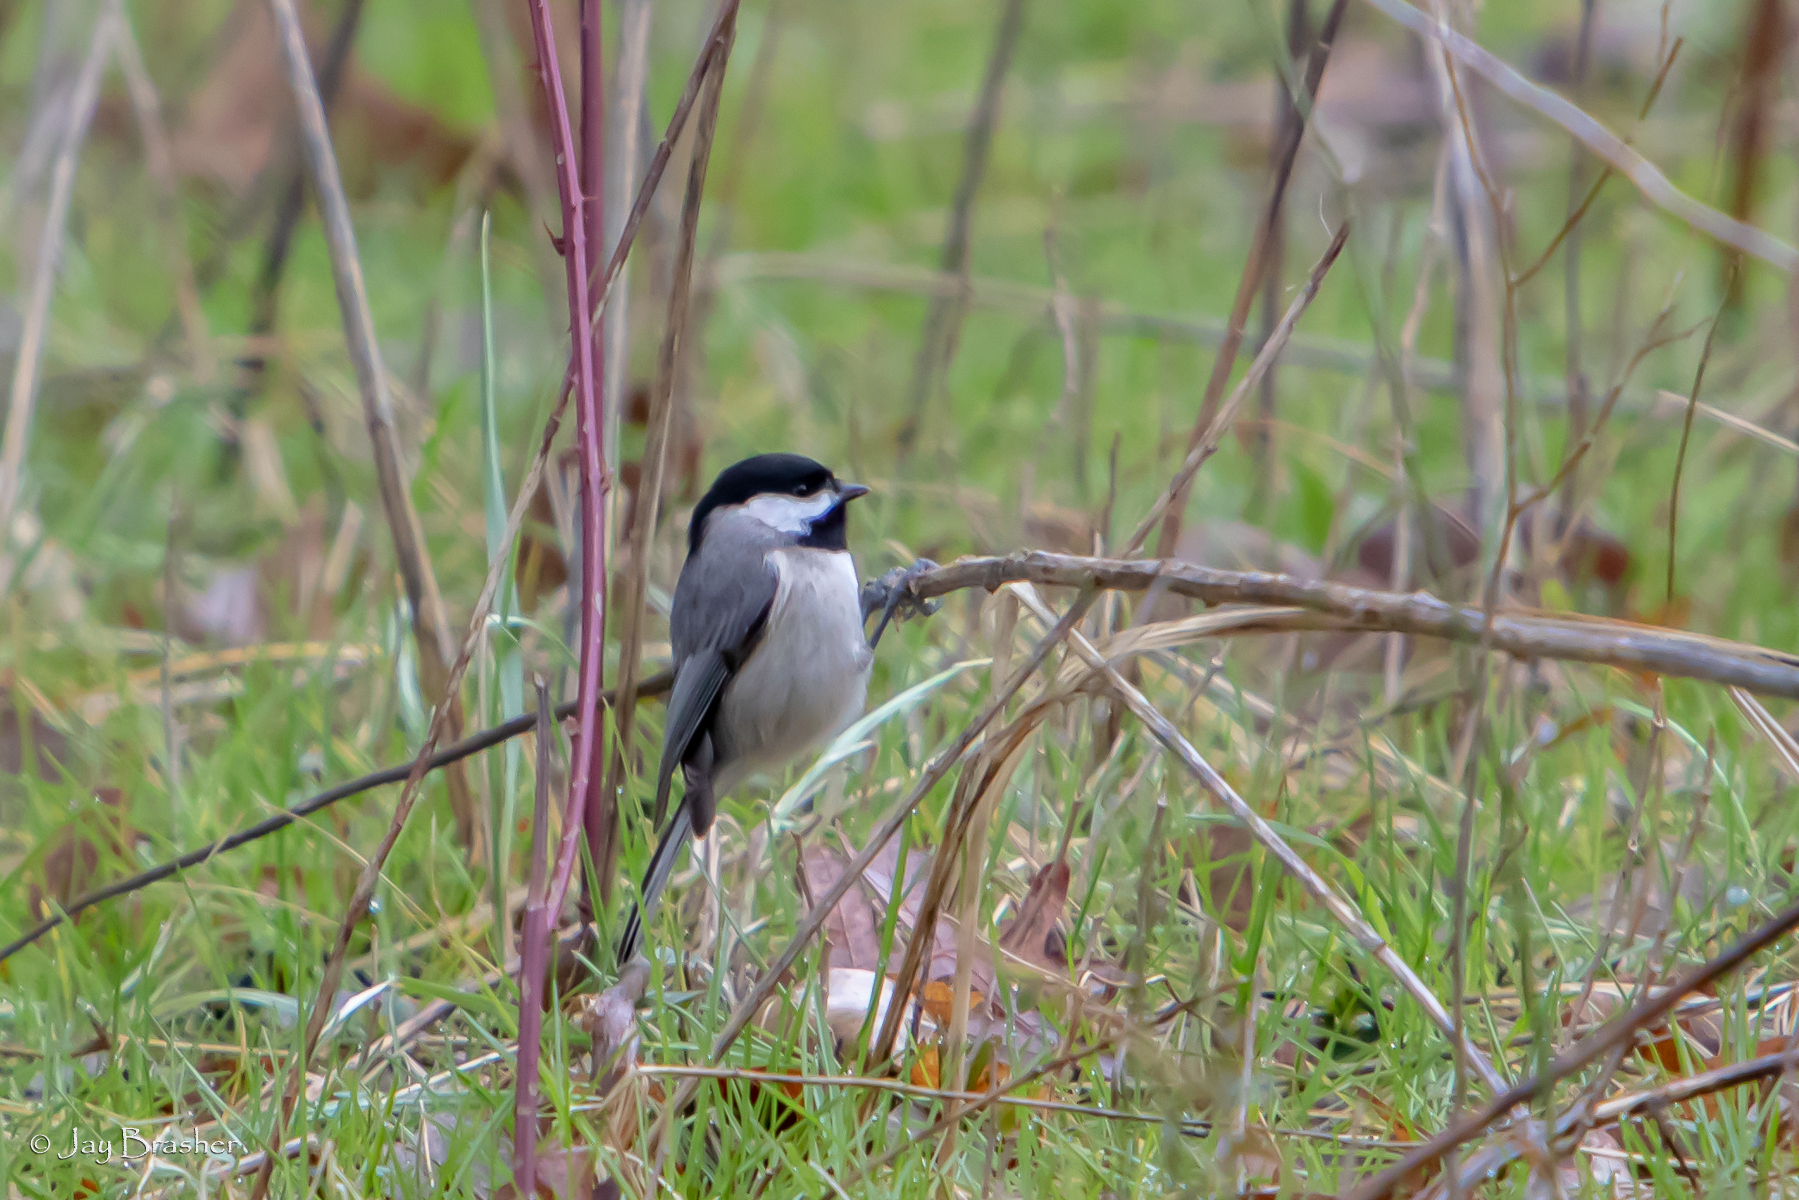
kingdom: Animalia
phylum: Chordata
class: Aves
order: Passeriformes
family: Paridae
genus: Poecile
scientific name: Poecile carolinensis
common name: Carolina chickadee
